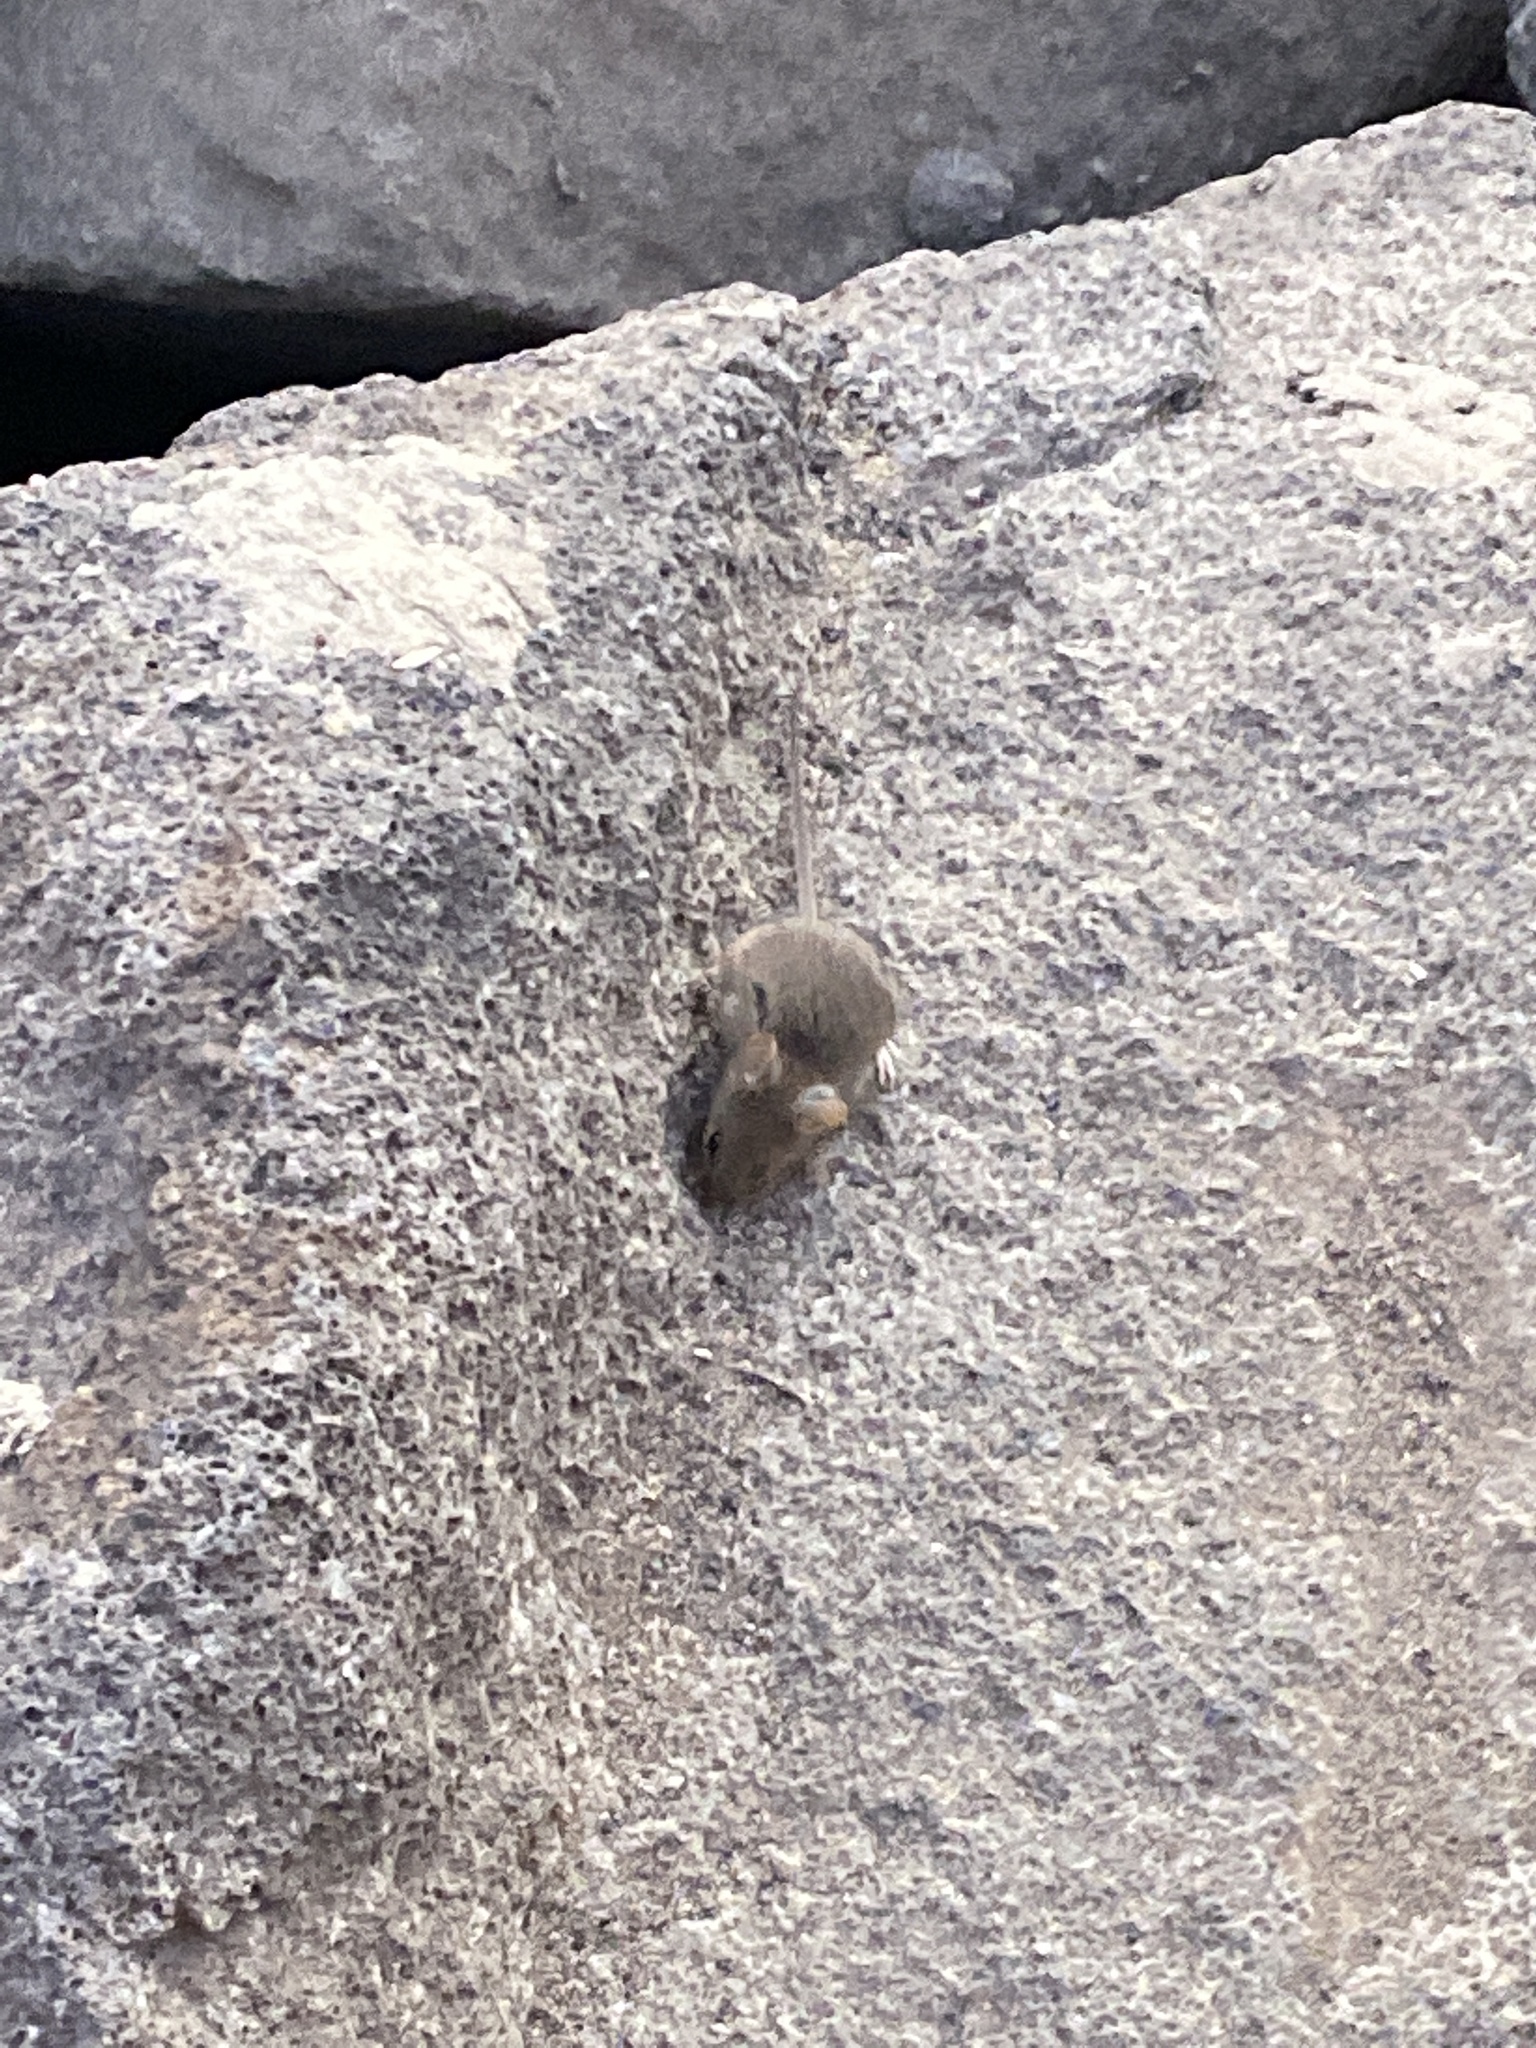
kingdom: Animalia
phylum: Chordata
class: Mammalia
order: Rodentia
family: Muridae
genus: Mus
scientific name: Mus musculus
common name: House mouse
